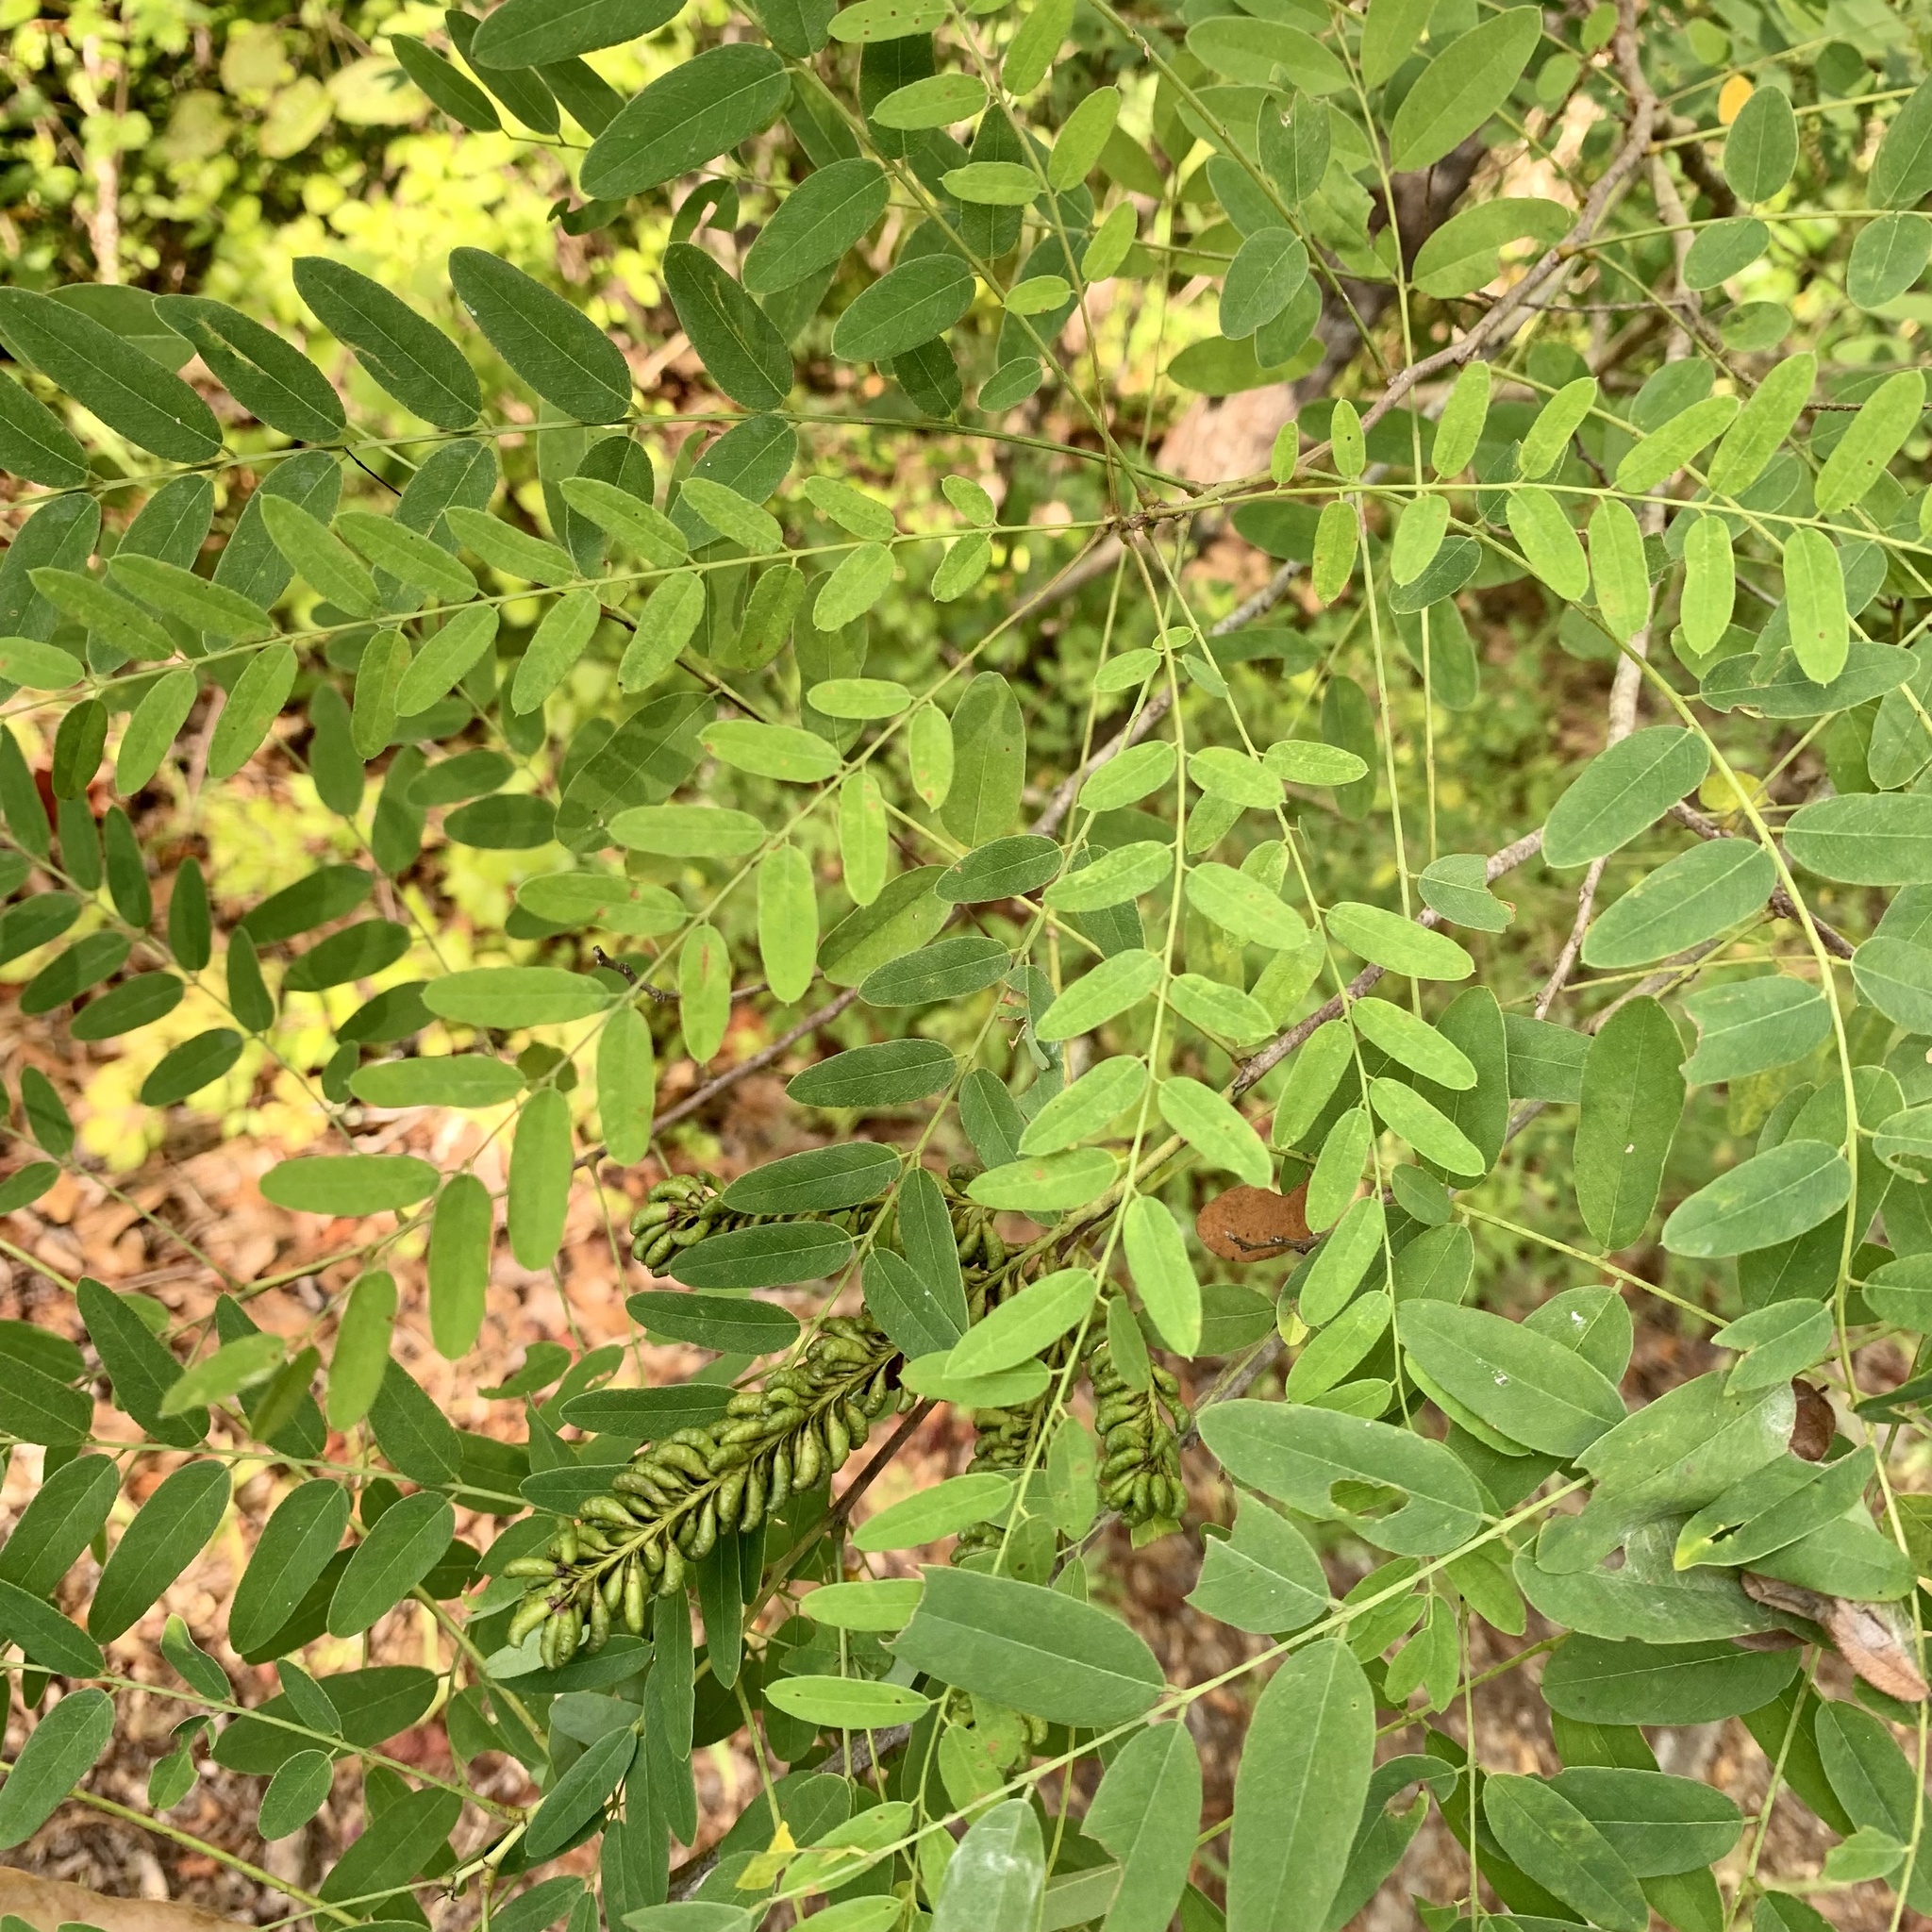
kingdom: Plantae
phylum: Tracheophyta
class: Magnoliopsida
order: Fabales
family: Fabaceae
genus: Amorpha
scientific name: Amorpha fruticosa
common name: False indigo
